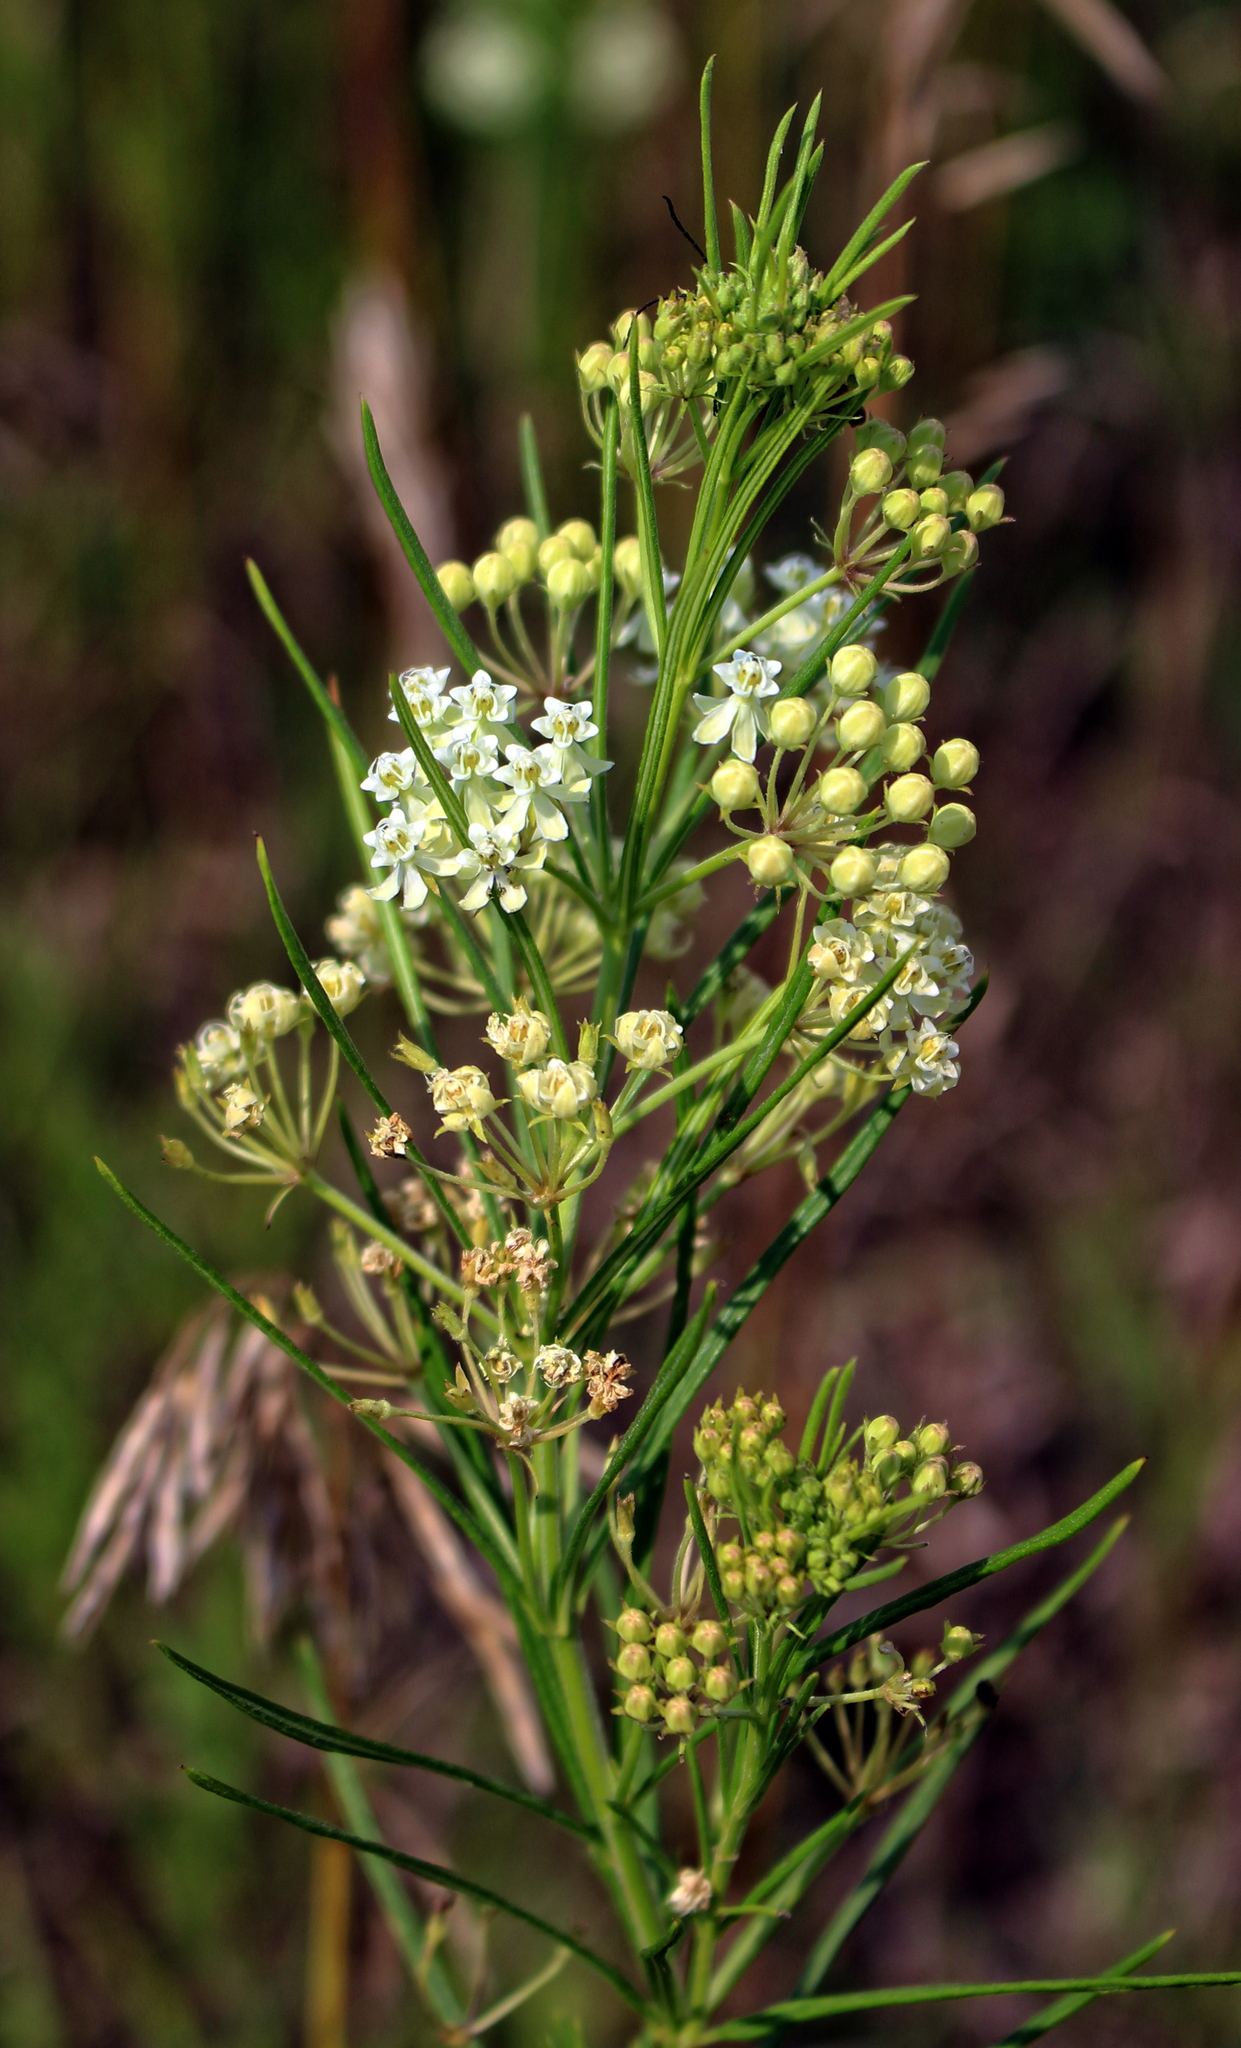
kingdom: Plantae
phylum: Tracheophyta
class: Magnoliopsida
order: Gentianales
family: Apocynaceae
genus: Asclepias
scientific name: Asclepias verticillata
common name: Eastern whorled milkweed
